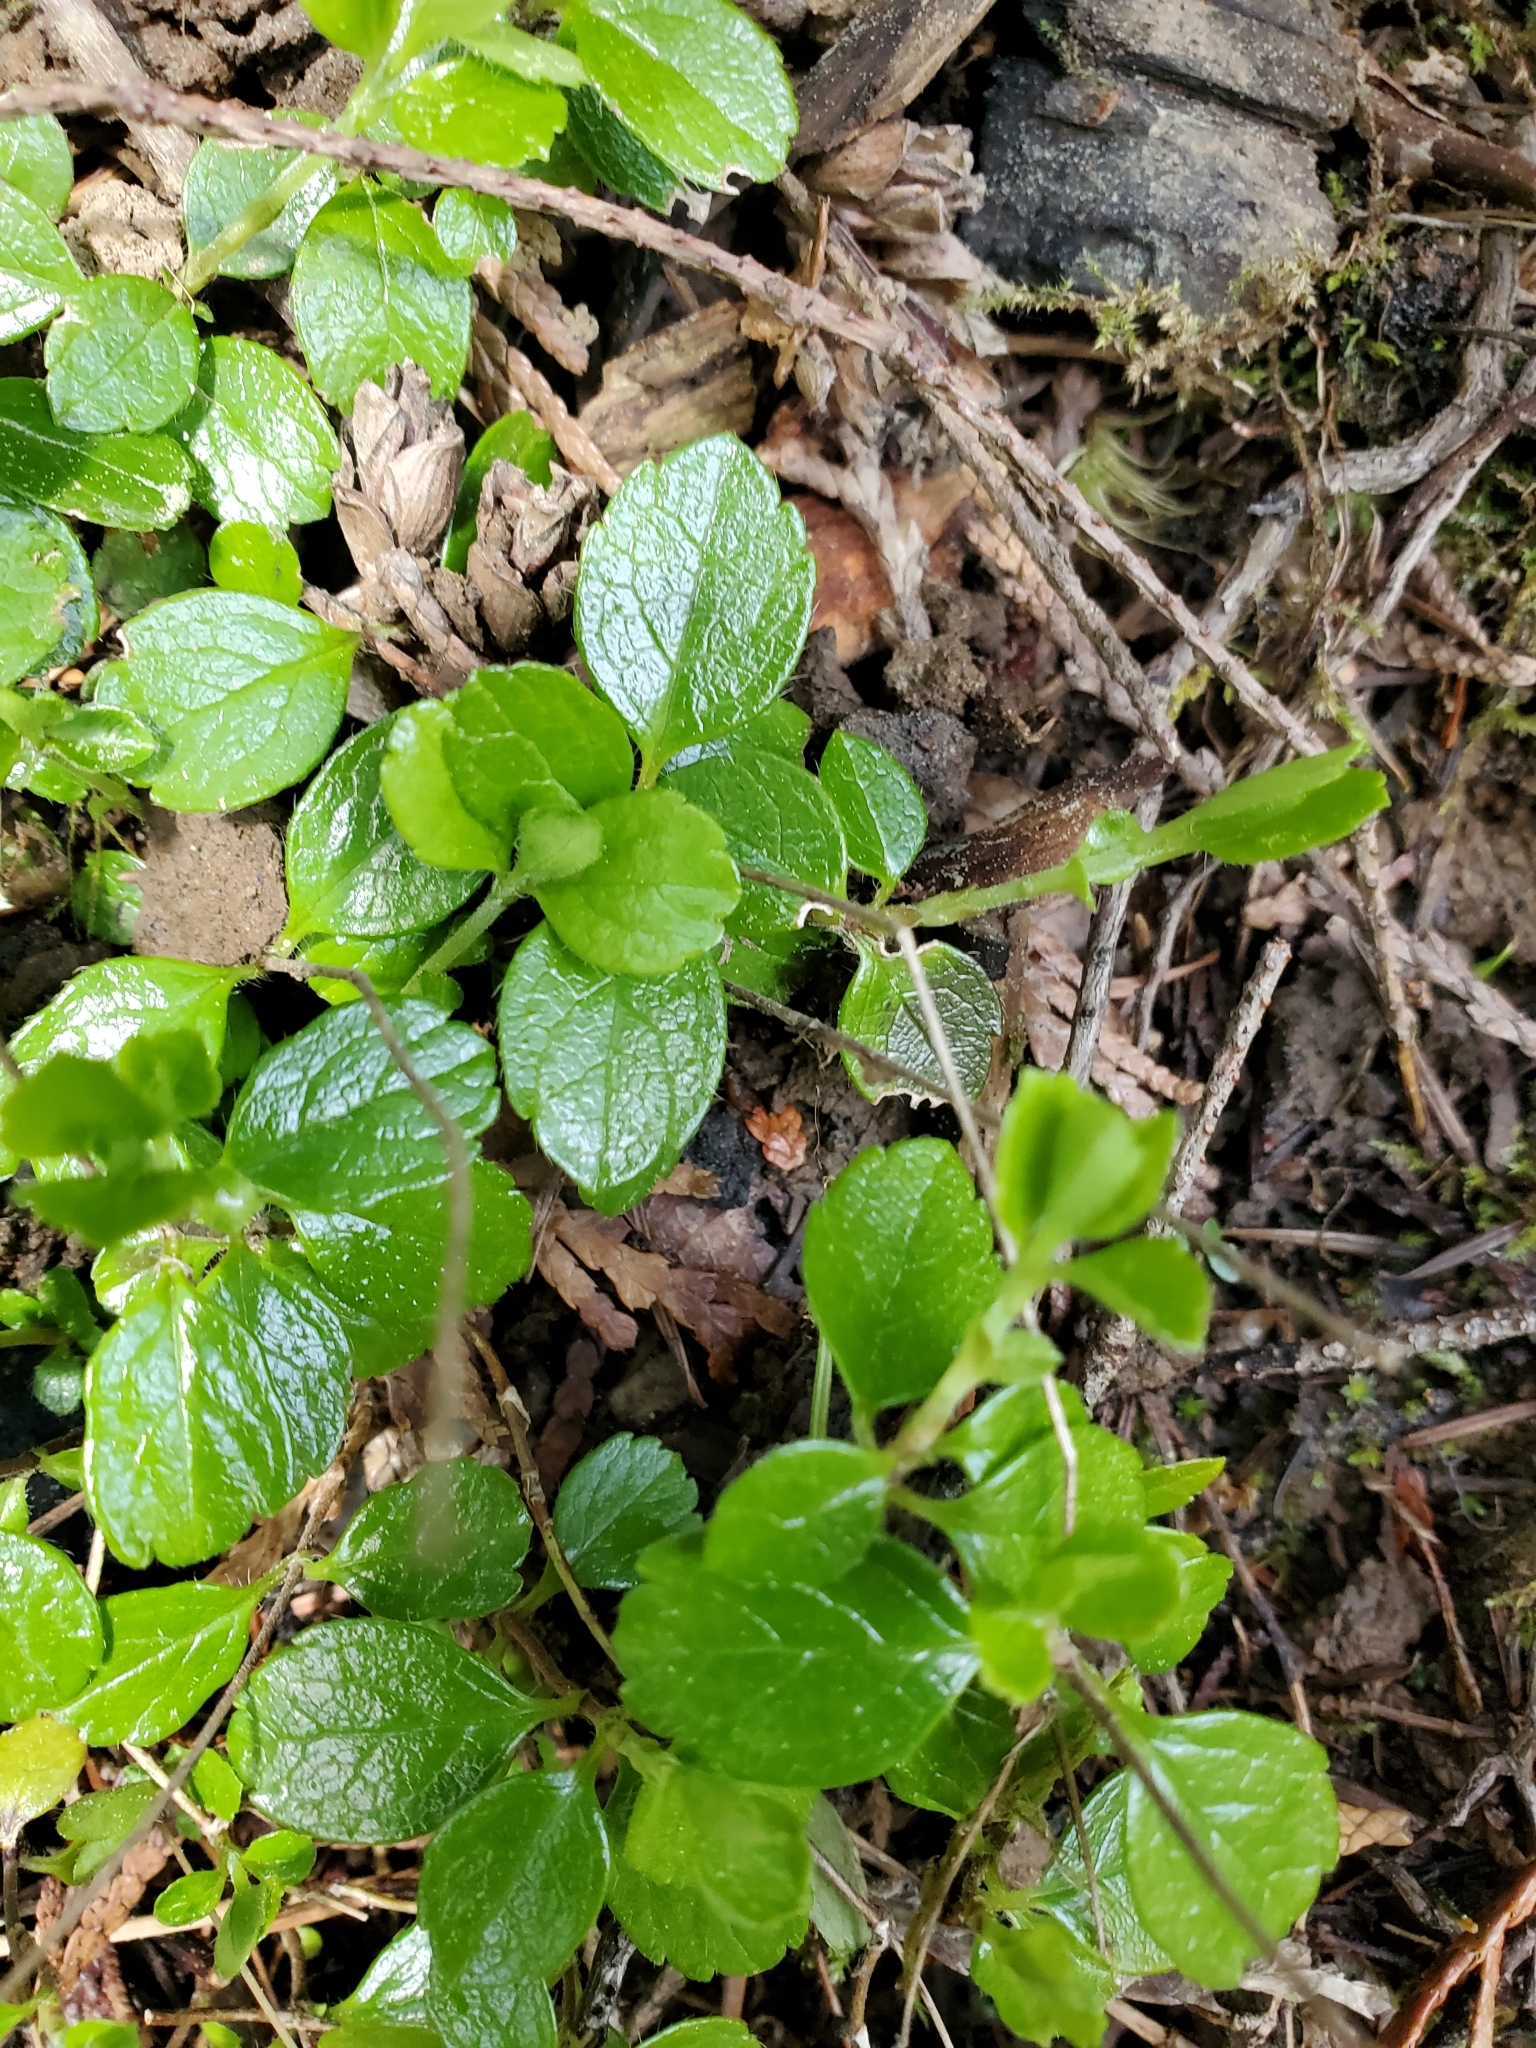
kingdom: Plantae
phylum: Tracheophyta
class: Magnoliopsida
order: Dipsacales
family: Caprifoliaceae
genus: Linnaea
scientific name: Linnaea borealis
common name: Twinflower
